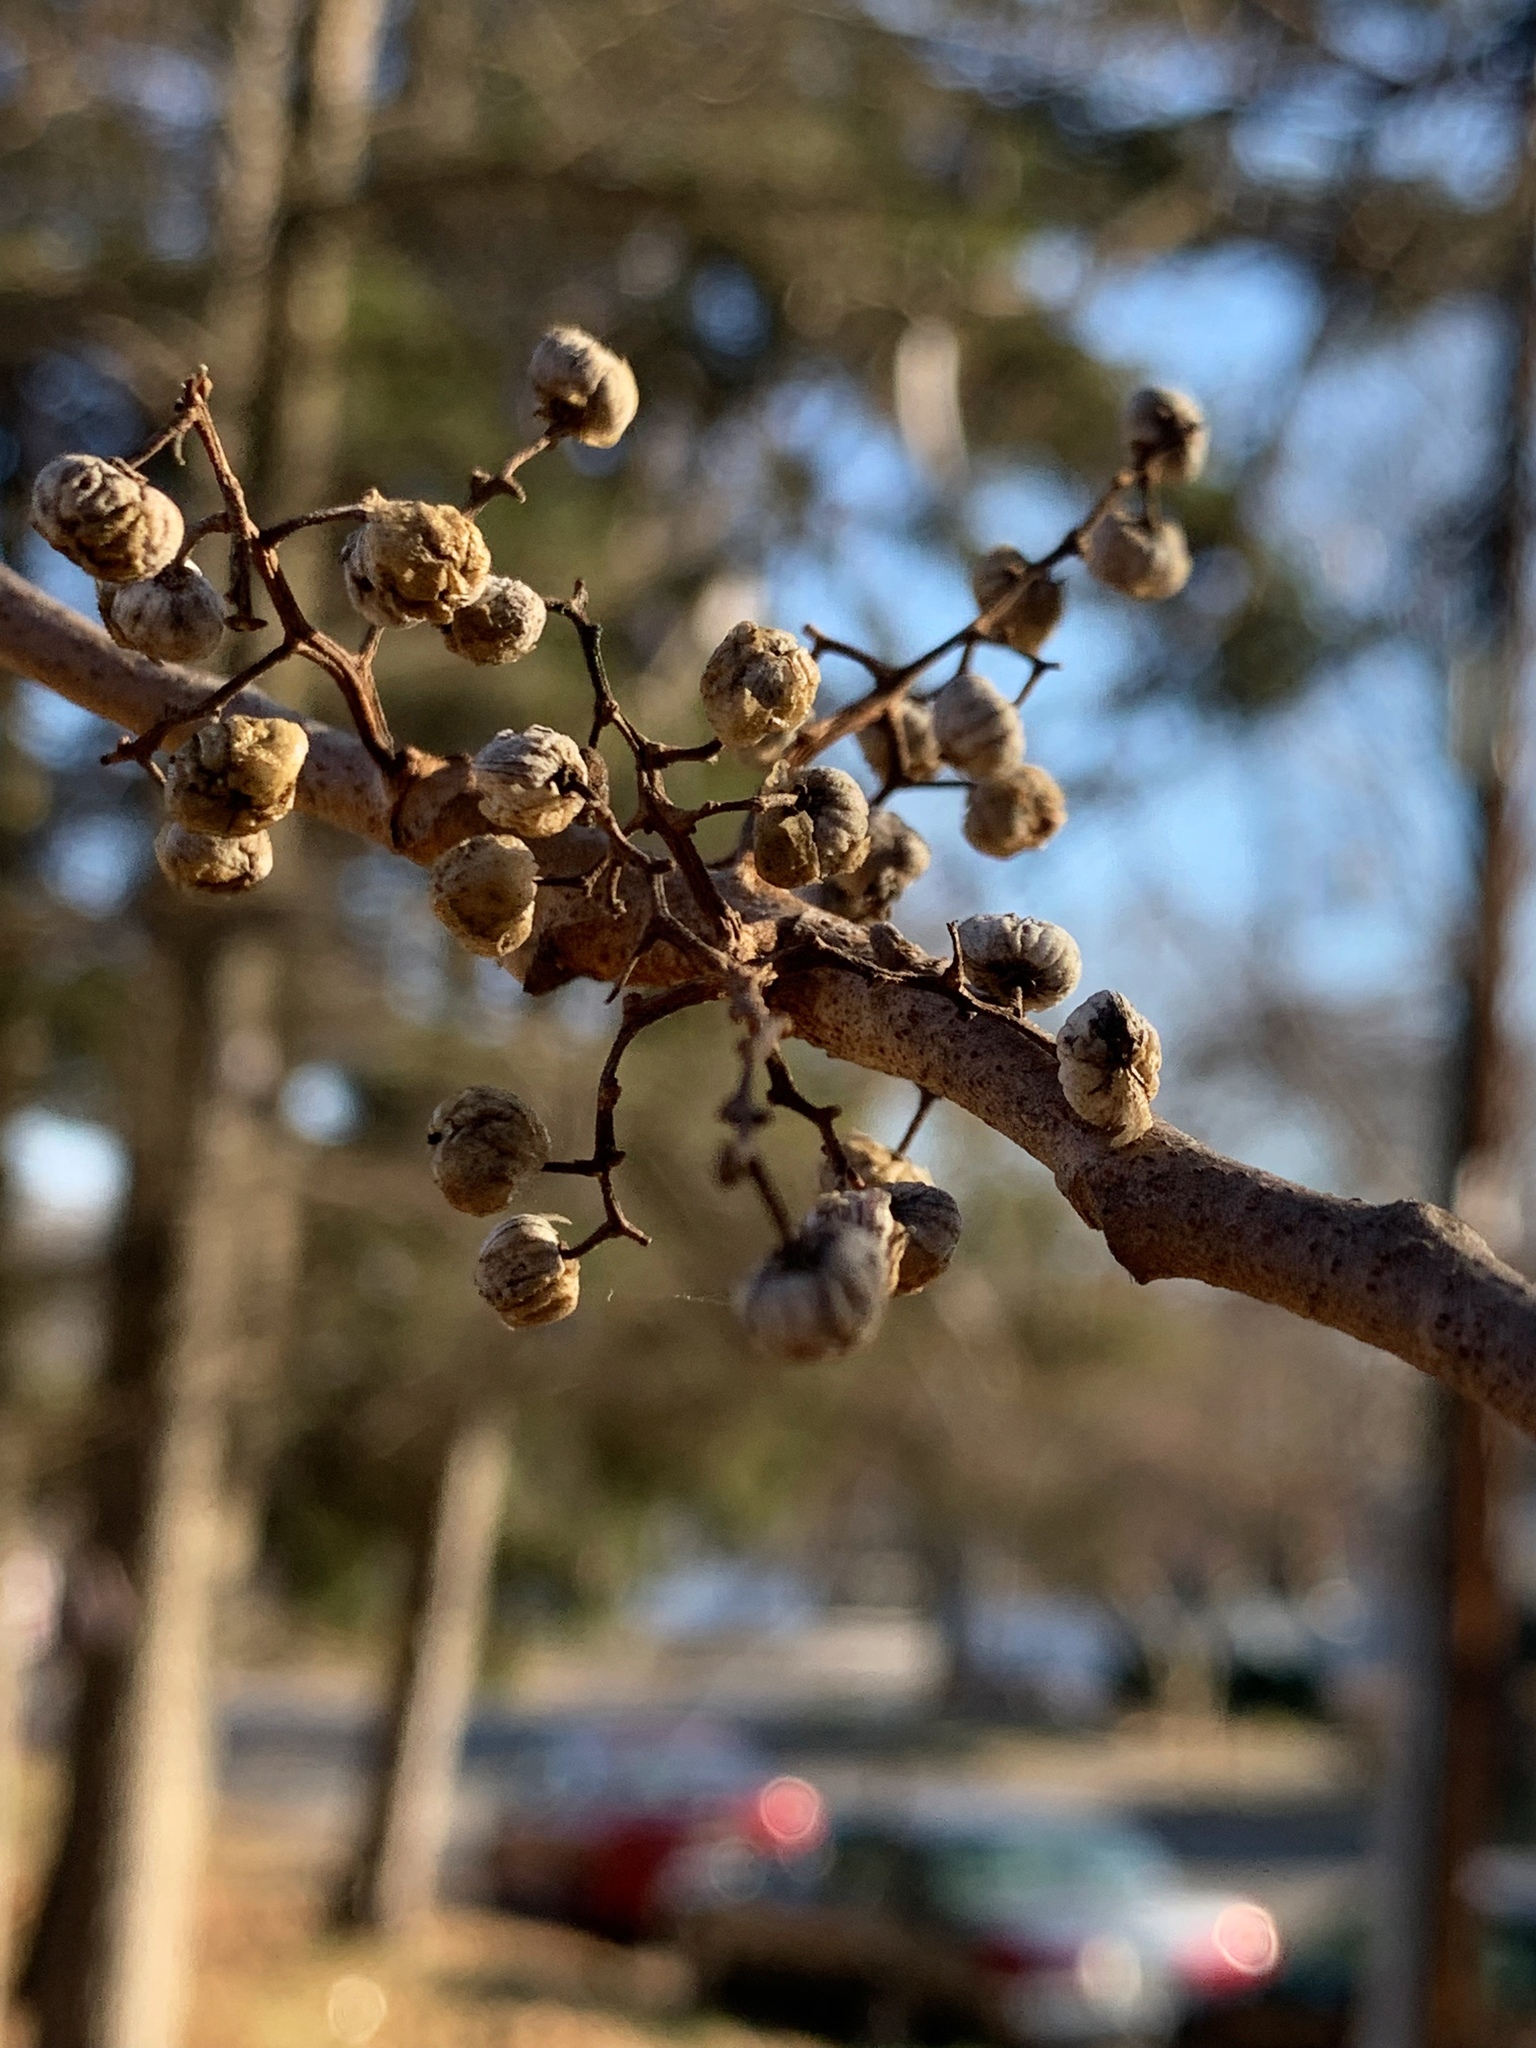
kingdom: Plantae
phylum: Tracheophyta
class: Magnoliopsida
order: Sapindales
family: Anacardiaceae
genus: Toxicodendron
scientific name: Toxicodendron radicans
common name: Poison ivy
